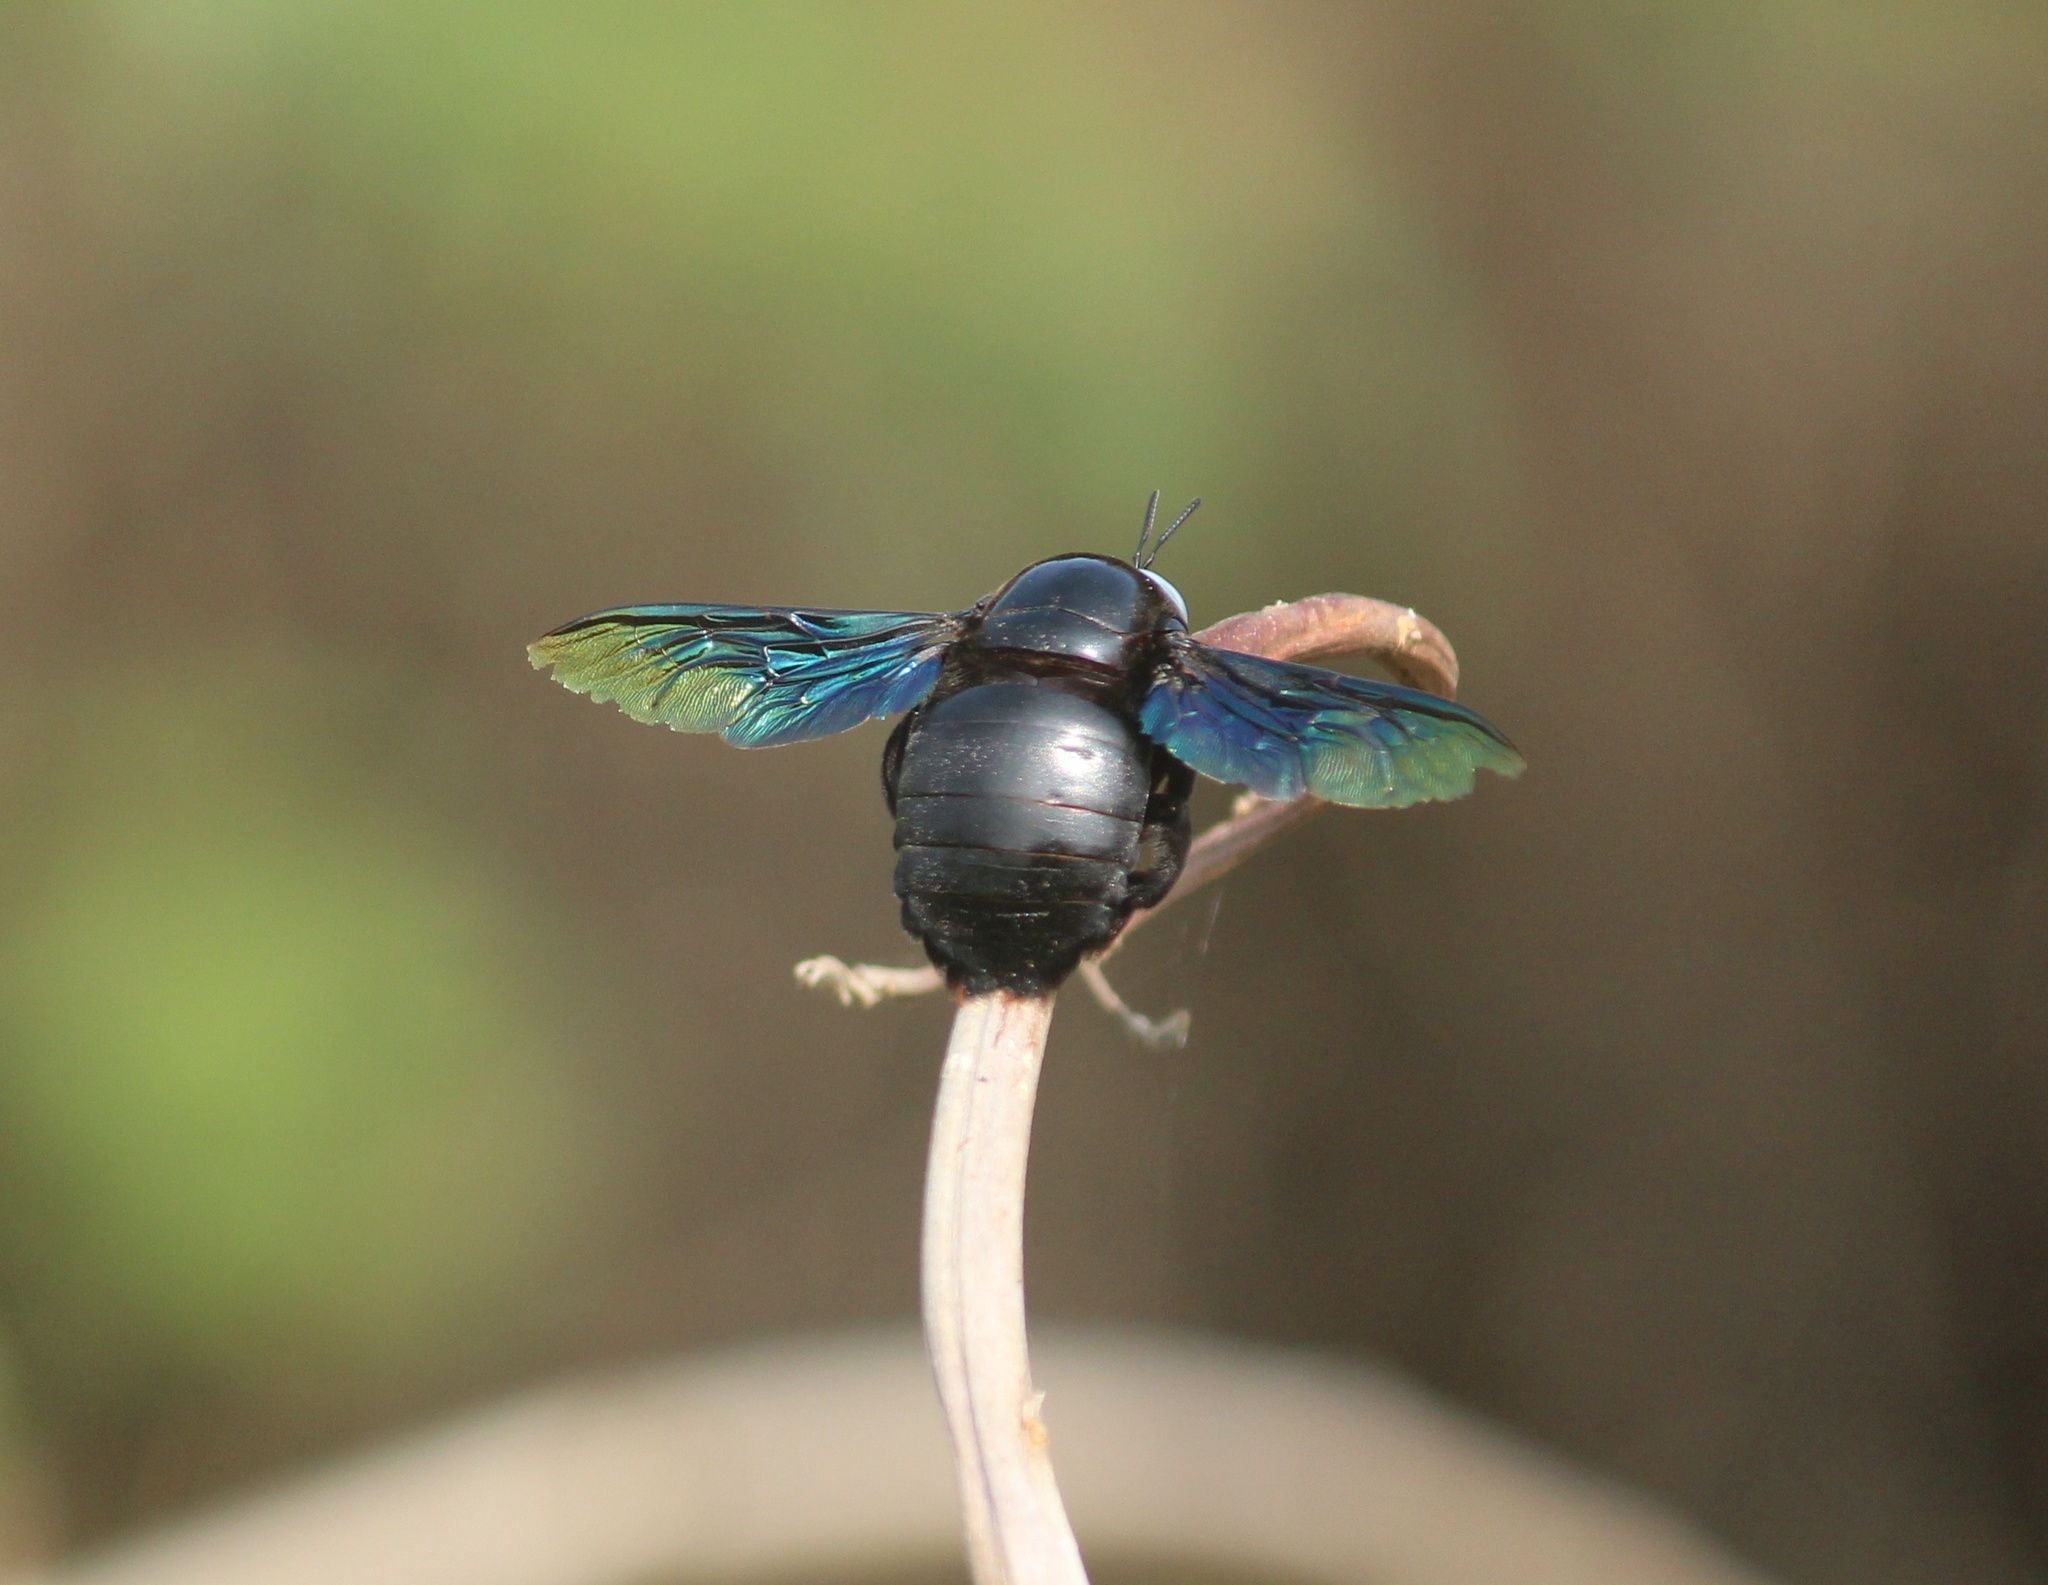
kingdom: Animalia
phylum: Arthropoda
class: Insecta
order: Hymenoptera
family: Apidae
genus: Xylocopa
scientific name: Xylocopa tenuiscapa
